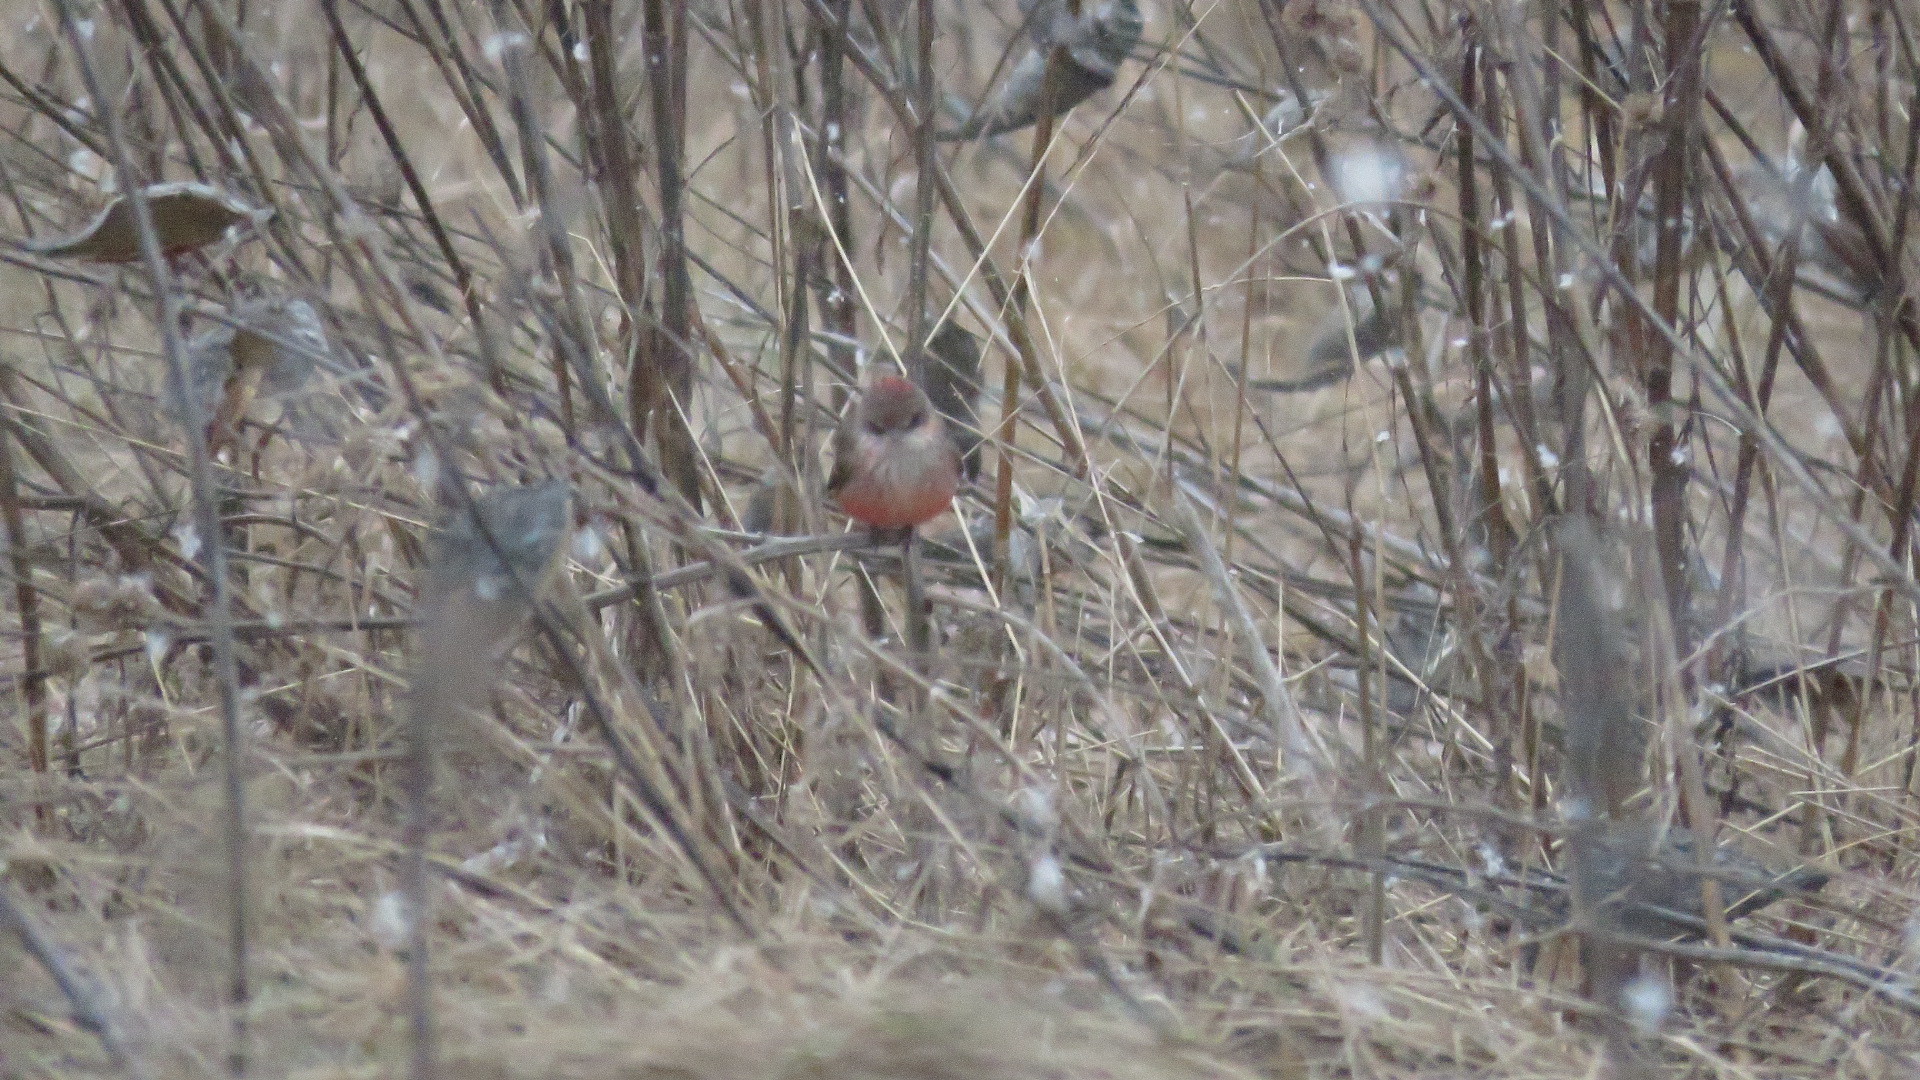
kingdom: Animalia
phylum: Chordata
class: Aves
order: Passeriformes
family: Tyrannidae
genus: Pyrocephalus
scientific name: Pyrocephalus rubinus
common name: Vermilion flycatcher
